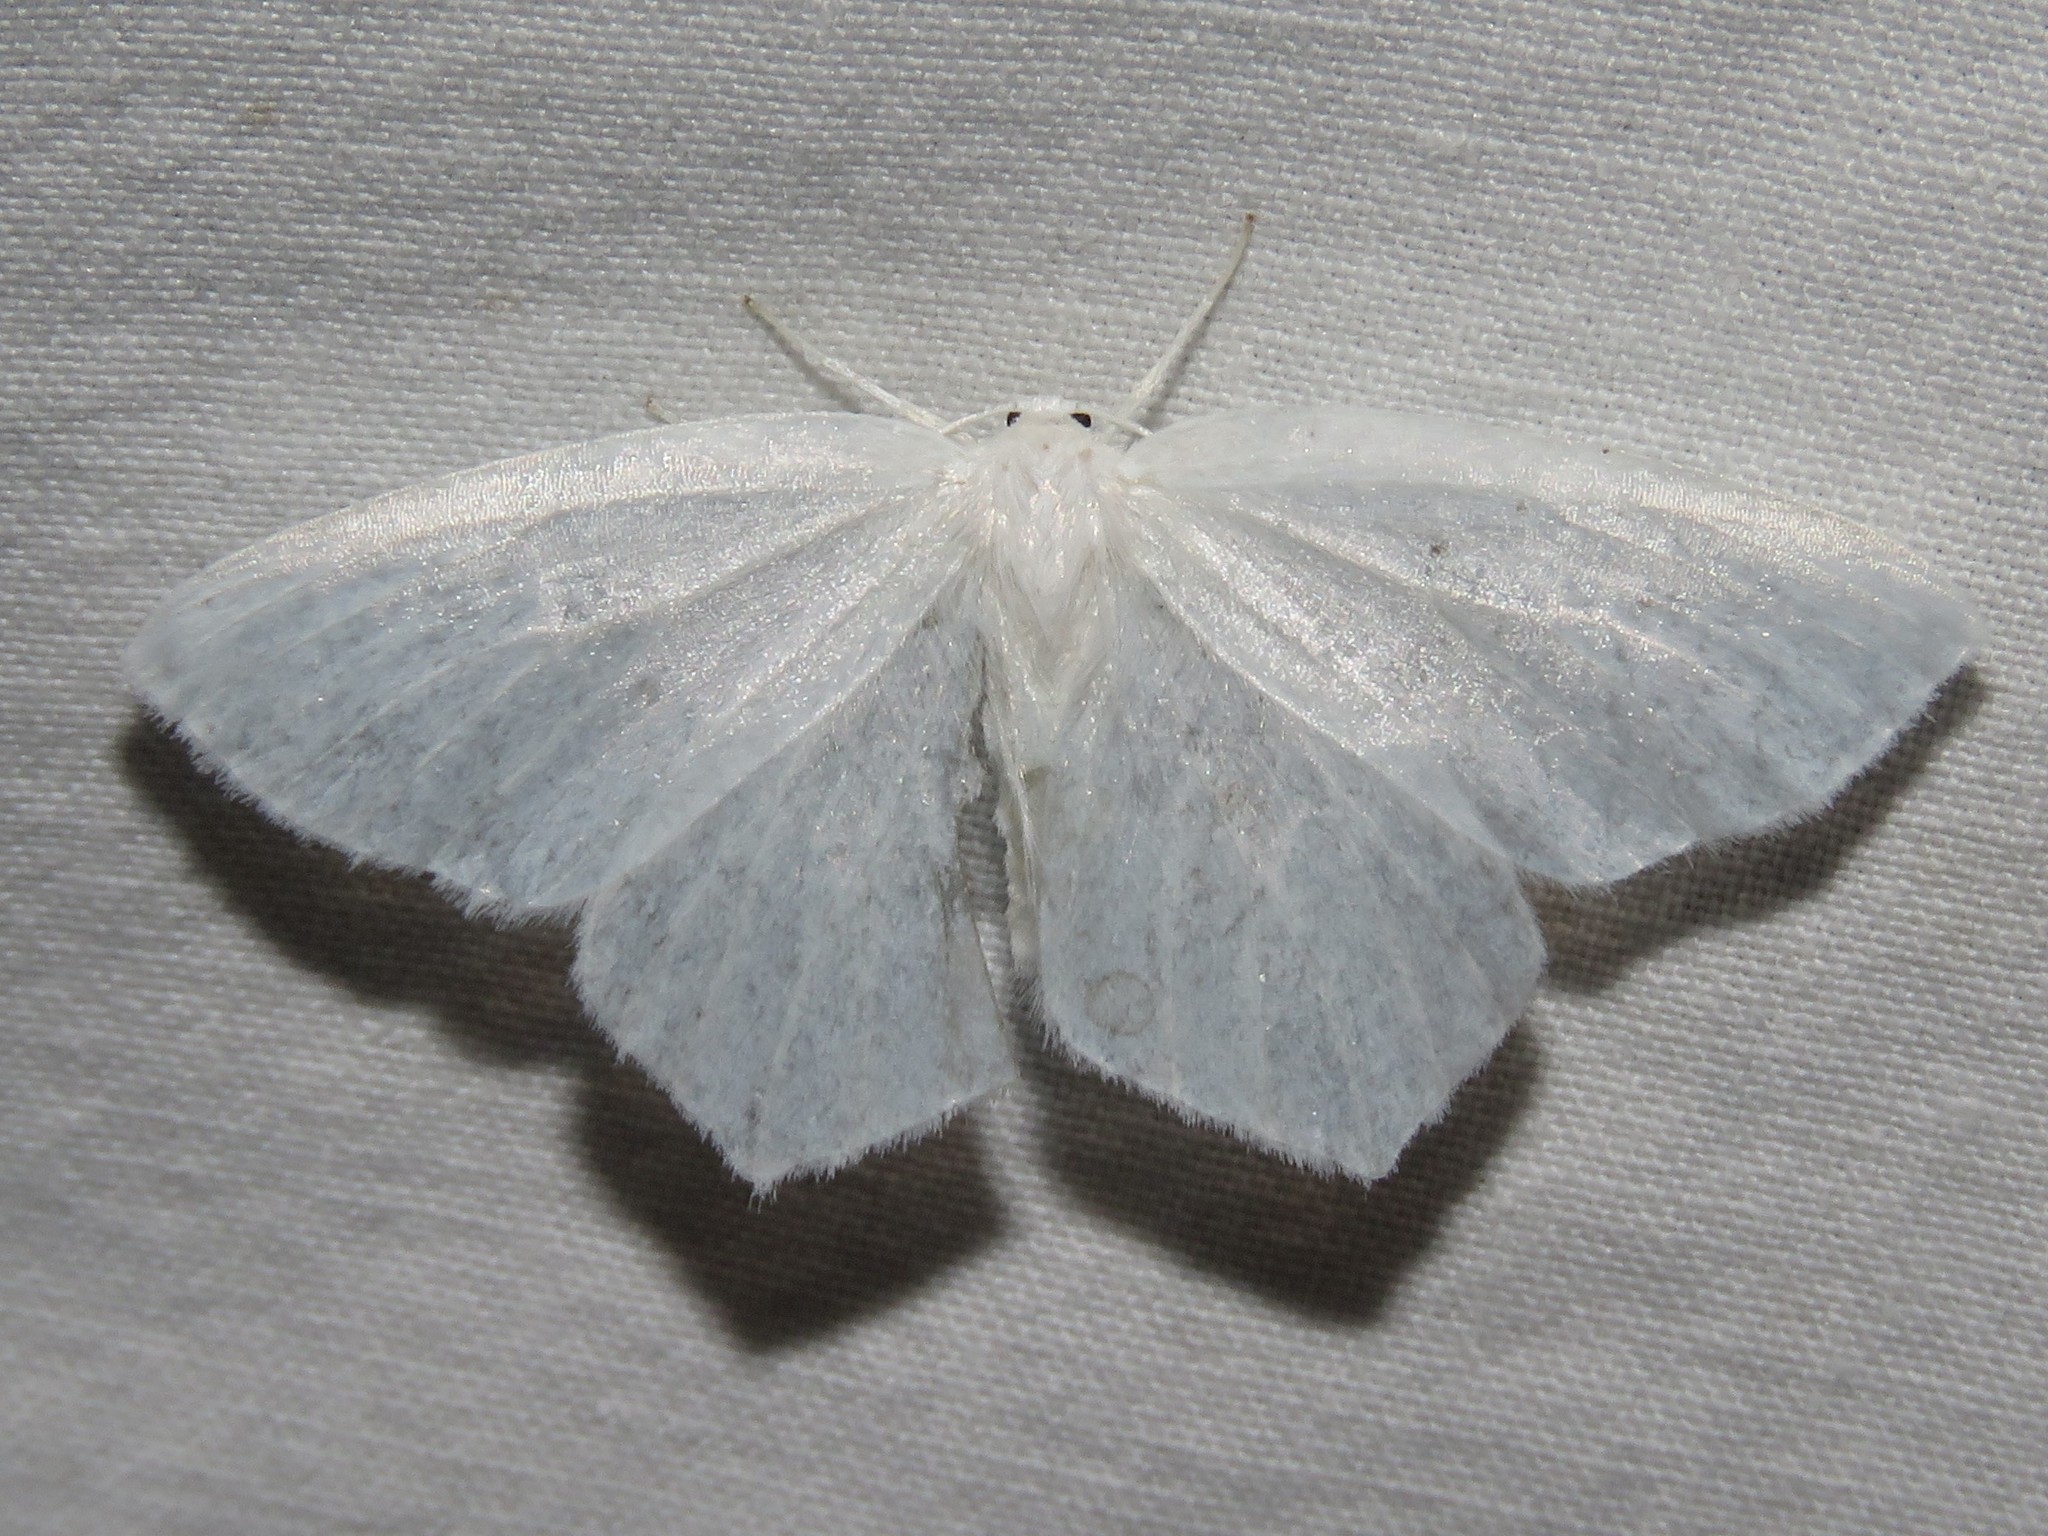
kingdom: Animalia
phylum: Arthropoda
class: Insecta
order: Lepidoptera
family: Geometridae
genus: Eugonobapta
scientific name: Eugonobapta nivosaria
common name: Snowy geometer
